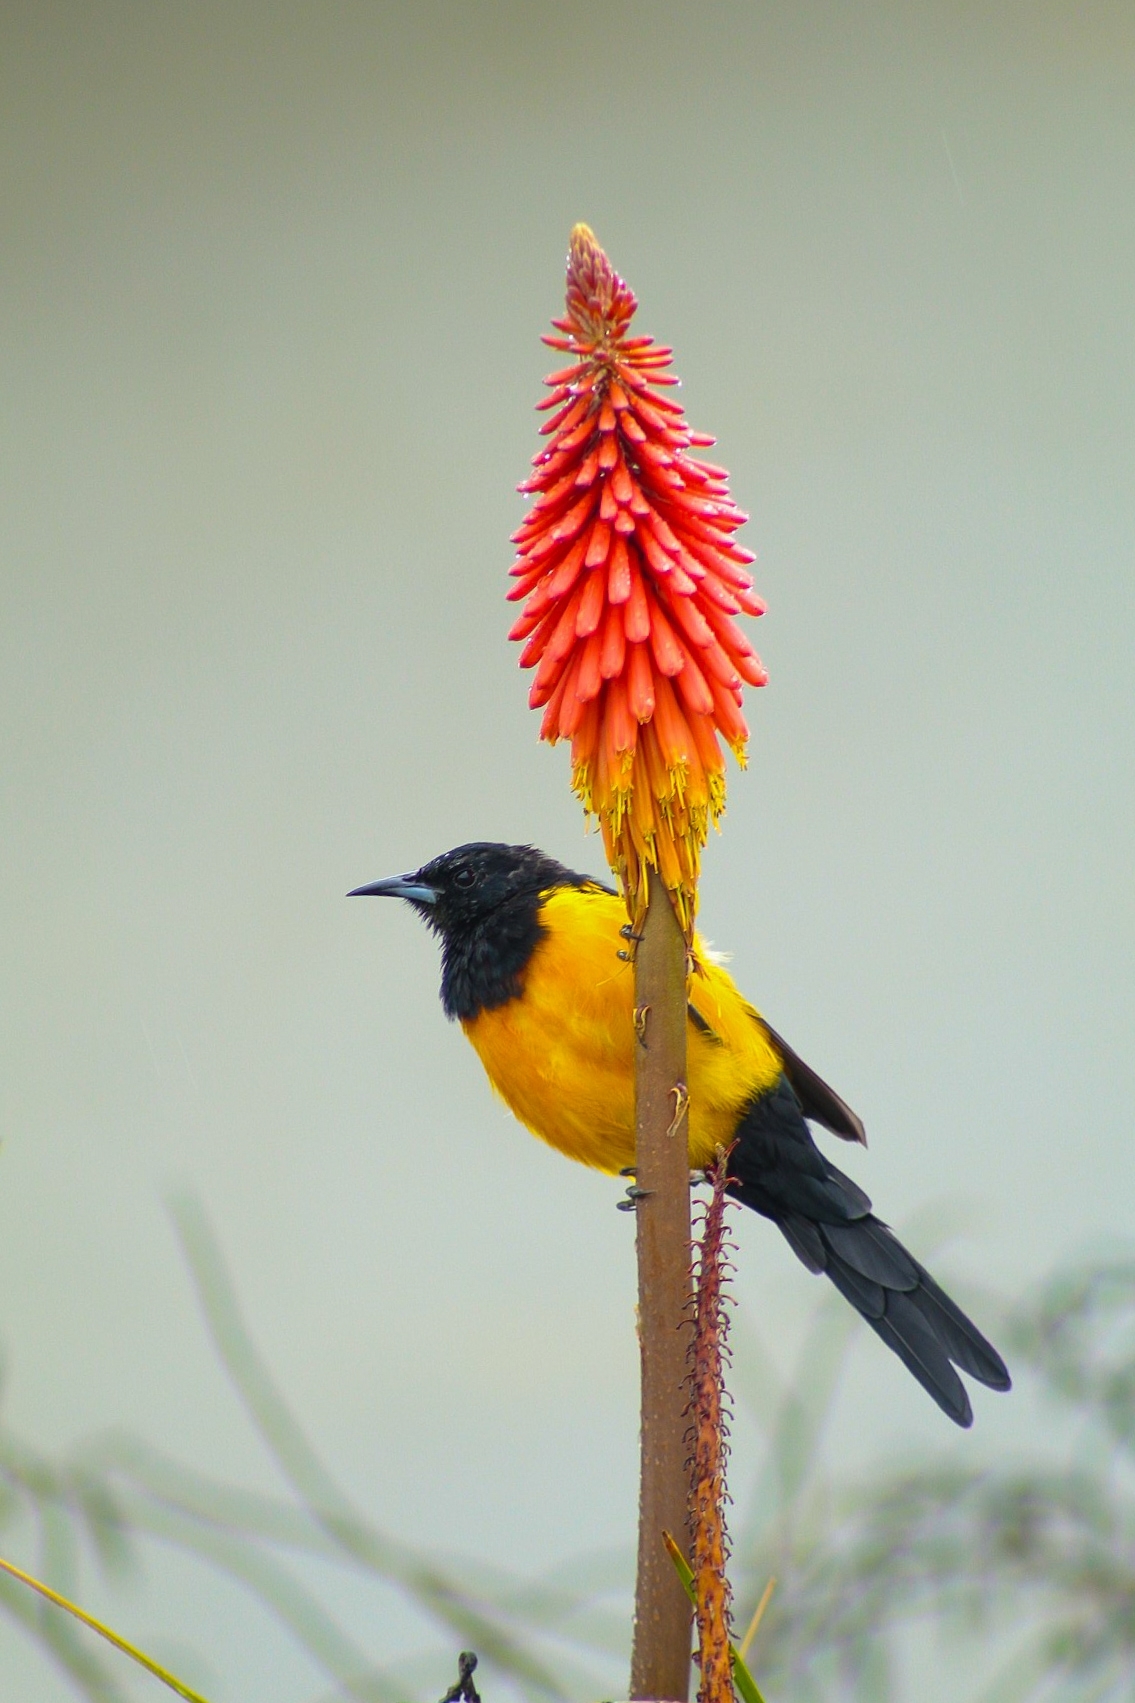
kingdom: Animalia
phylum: Chordata
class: Aves
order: Passeriformes
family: Icteridae
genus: Icterus
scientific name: Icterus wagleri
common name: Black-vented oriole
